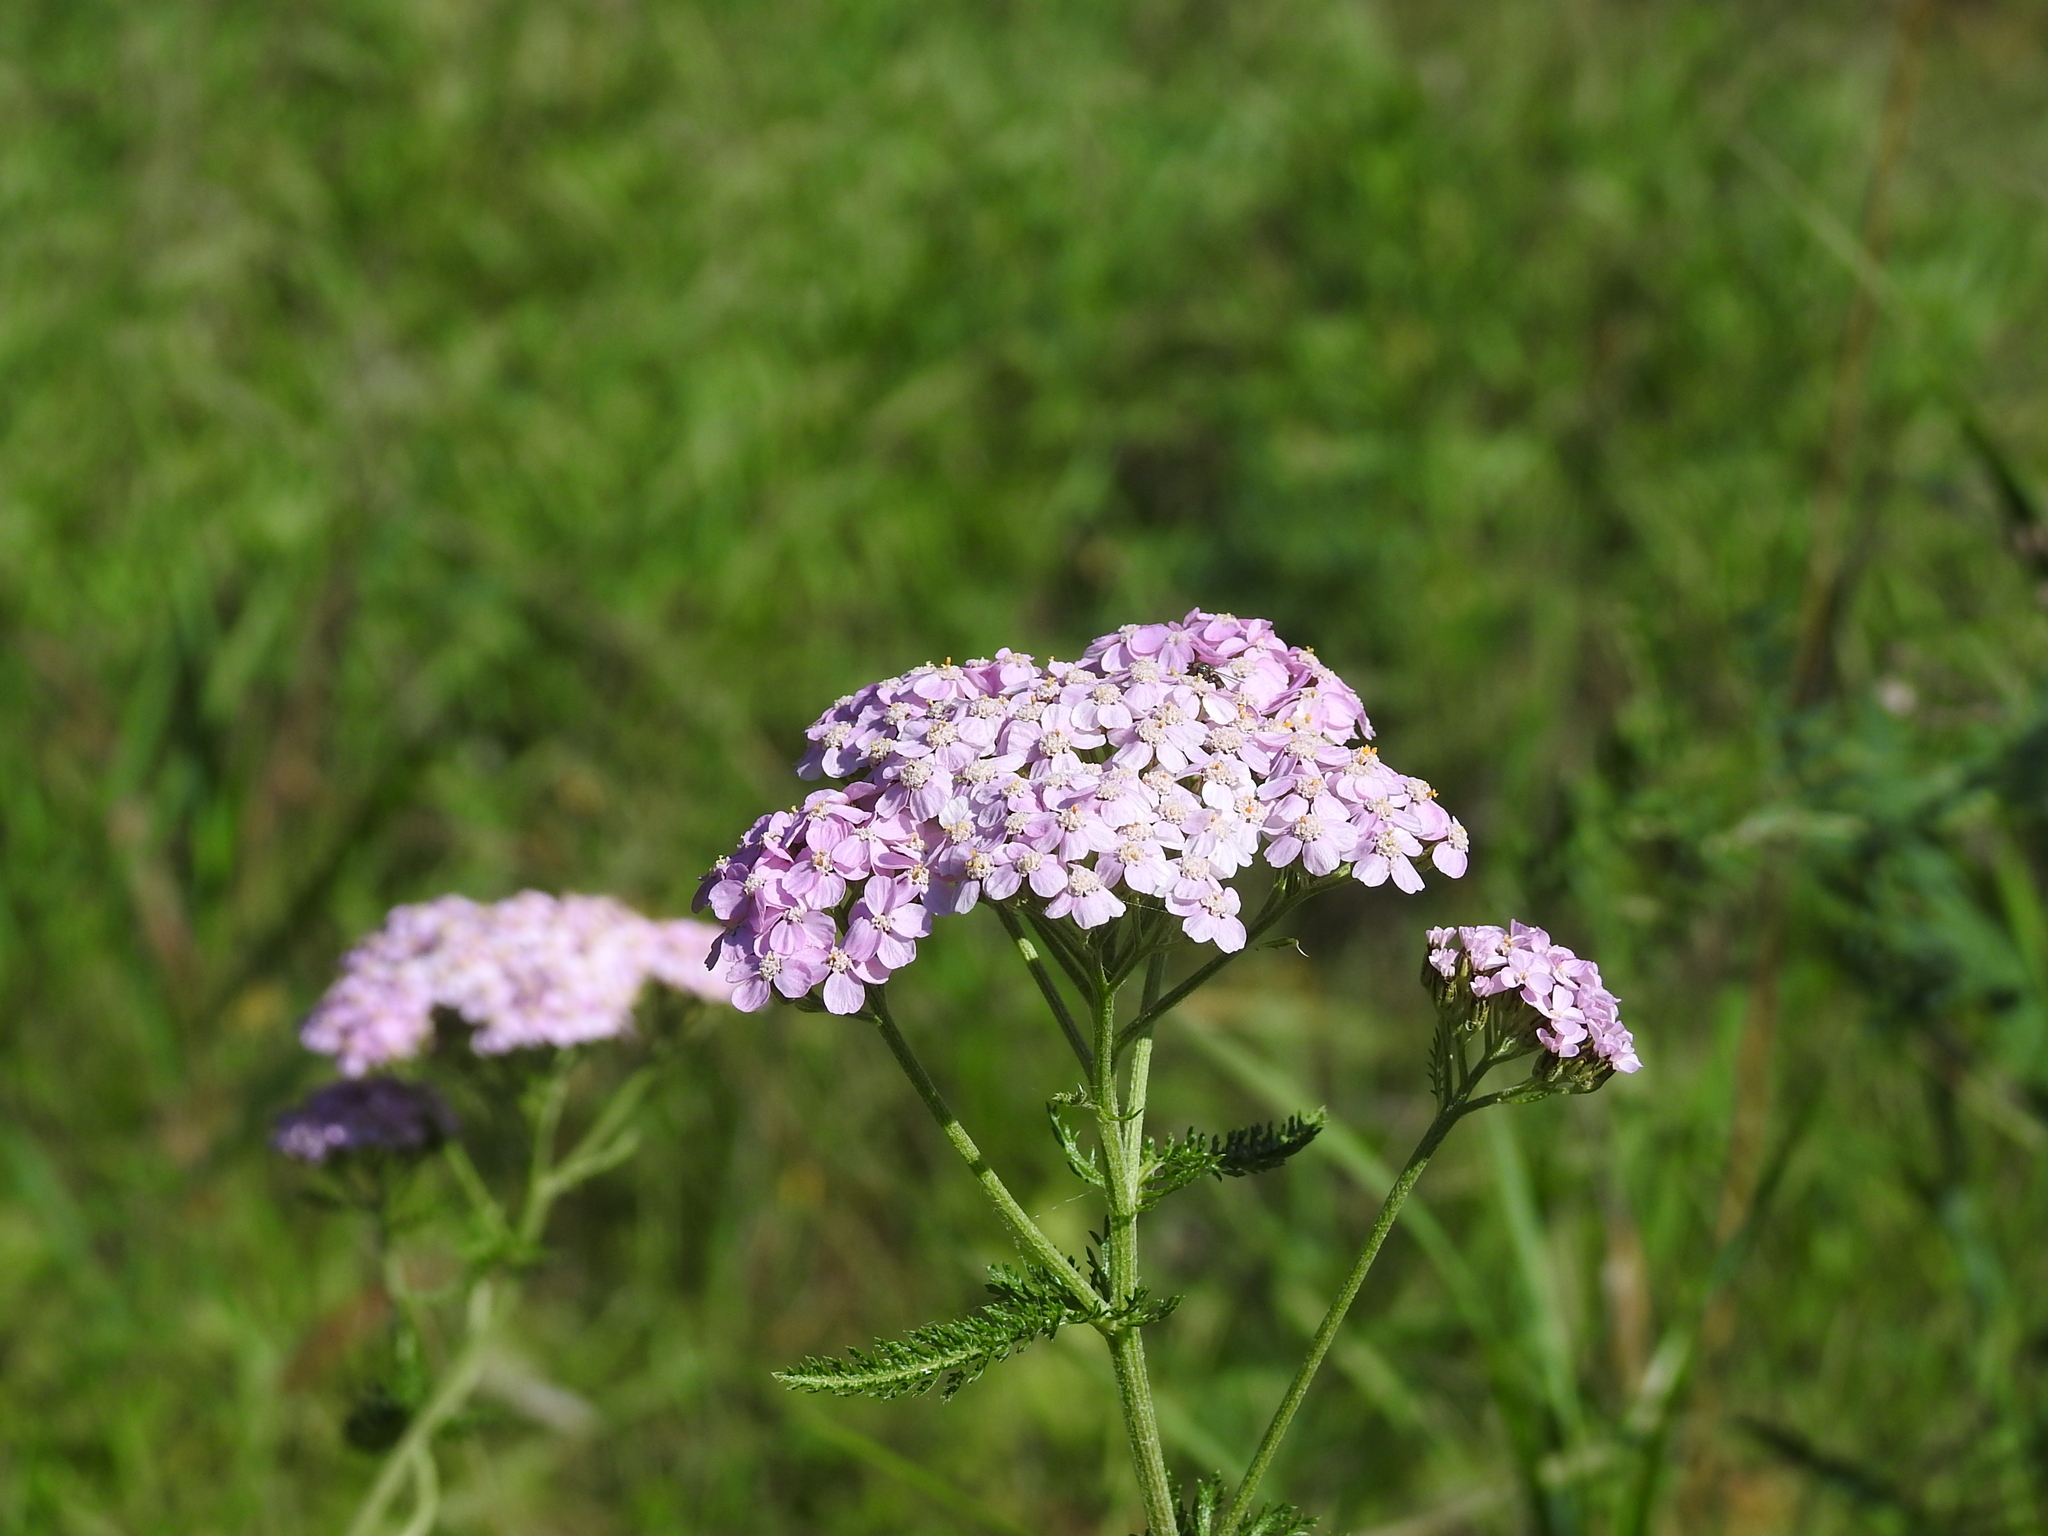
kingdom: Plantae
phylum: Tracheophyta
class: Magnoliopsida
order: Asterales
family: Asteraceae
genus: Achillea
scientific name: Achillea asiatica
